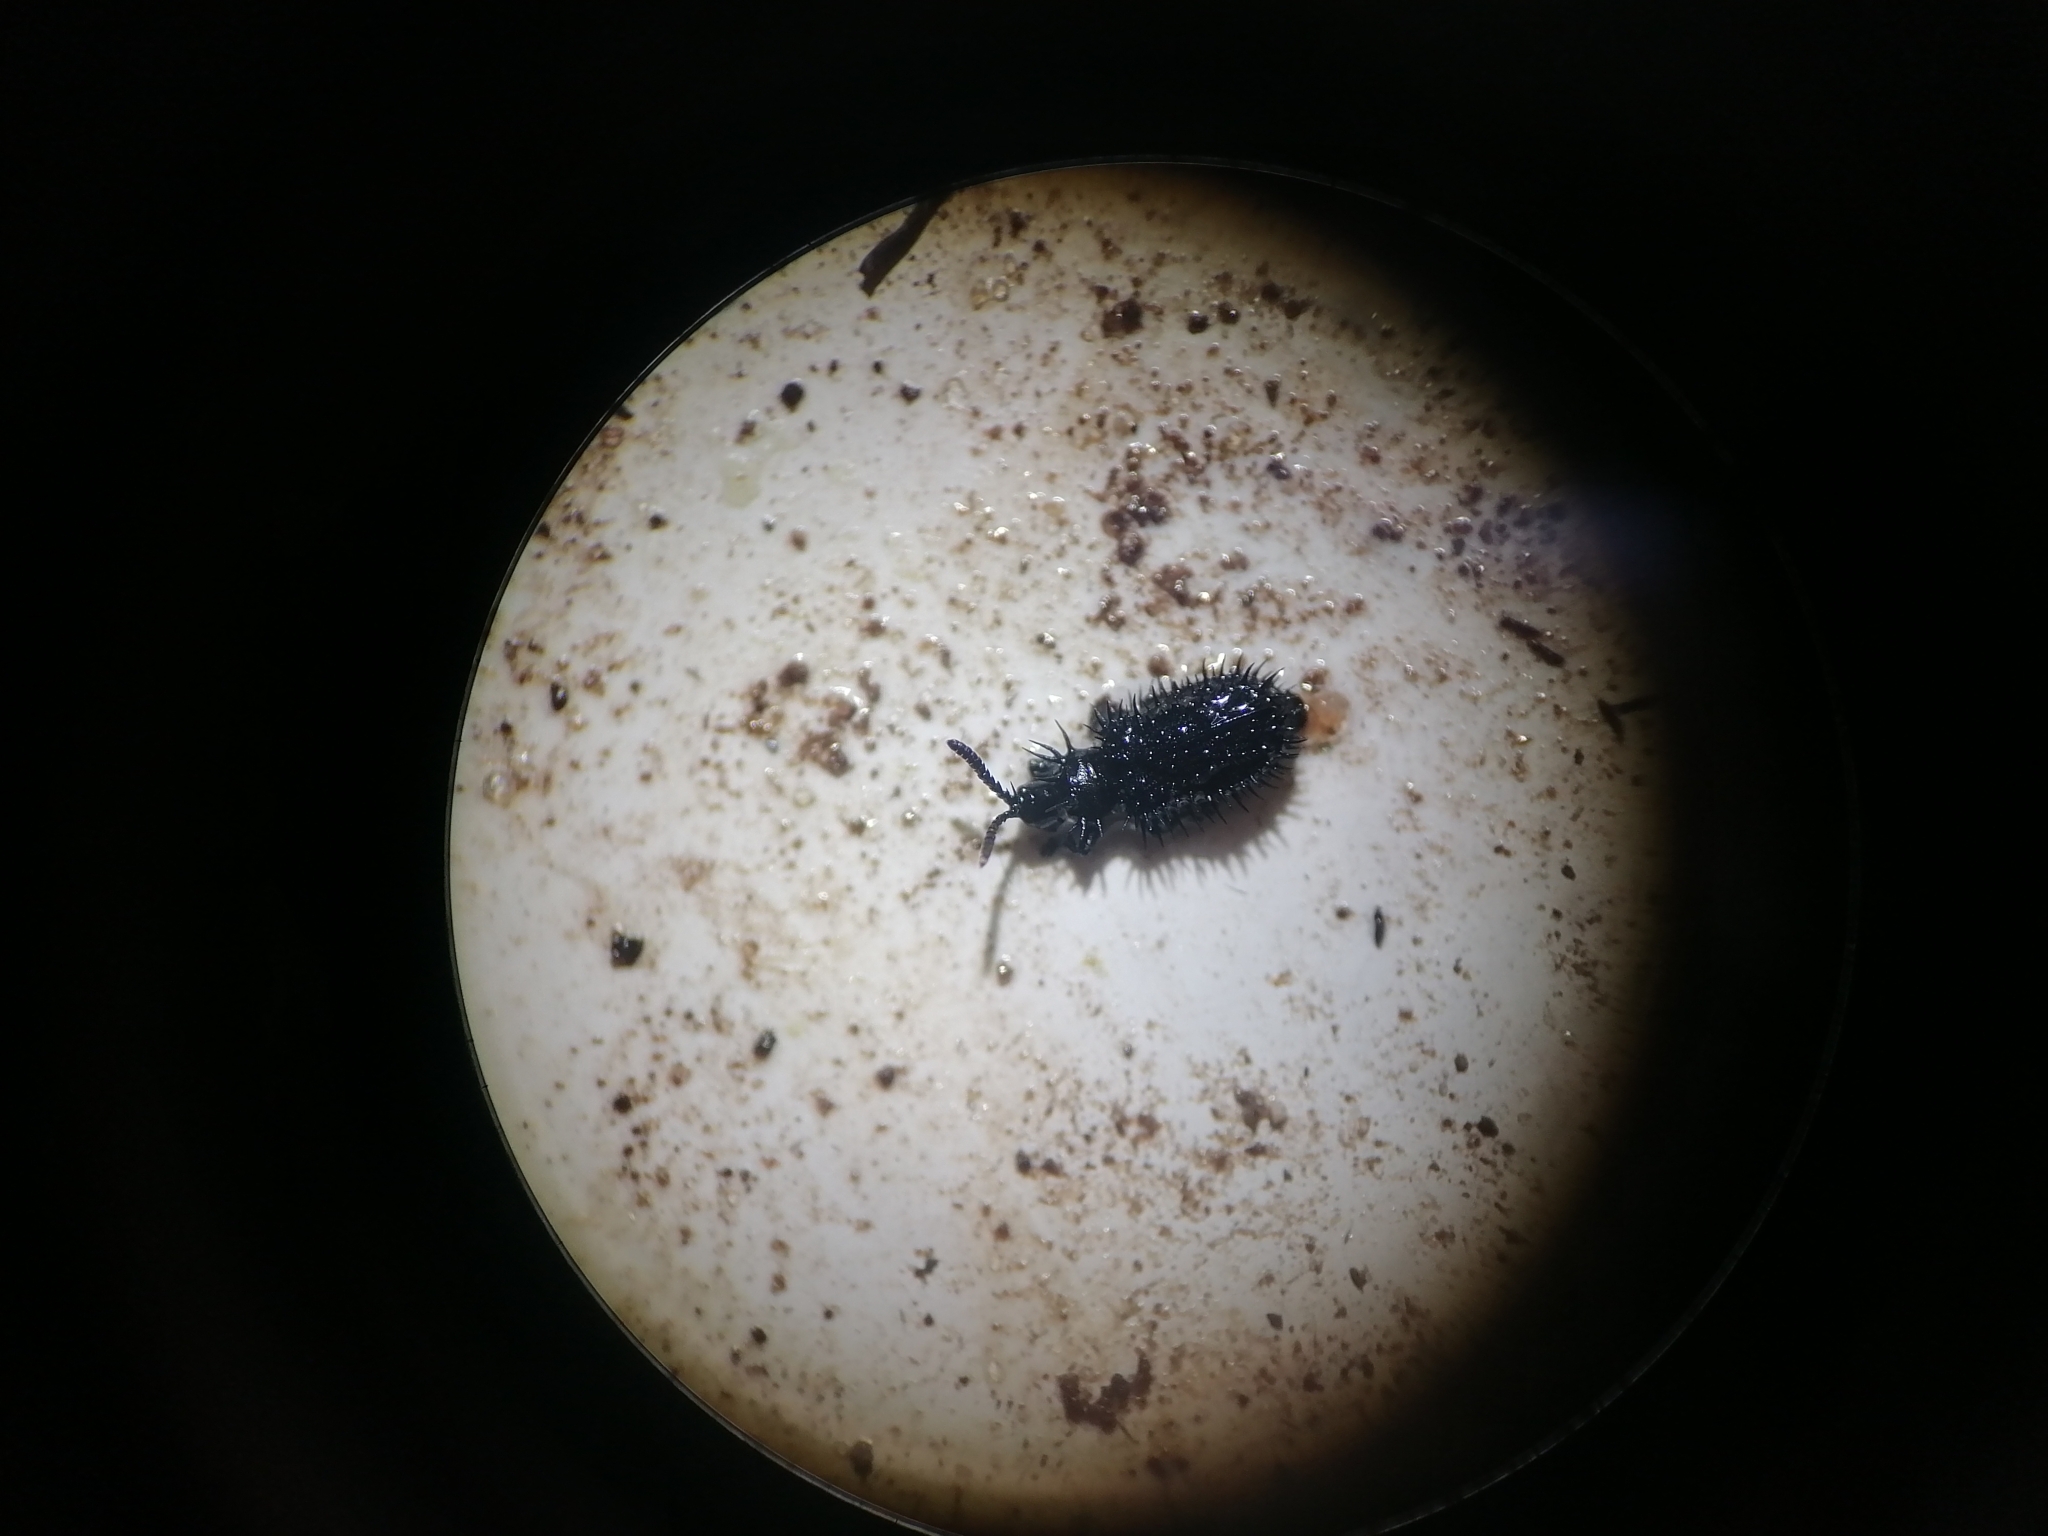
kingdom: Animalia
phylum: Arthropoda
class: Insecta
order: Coleoptera
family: Chrysomelidae
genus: Hispa
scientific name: Hispa atra
